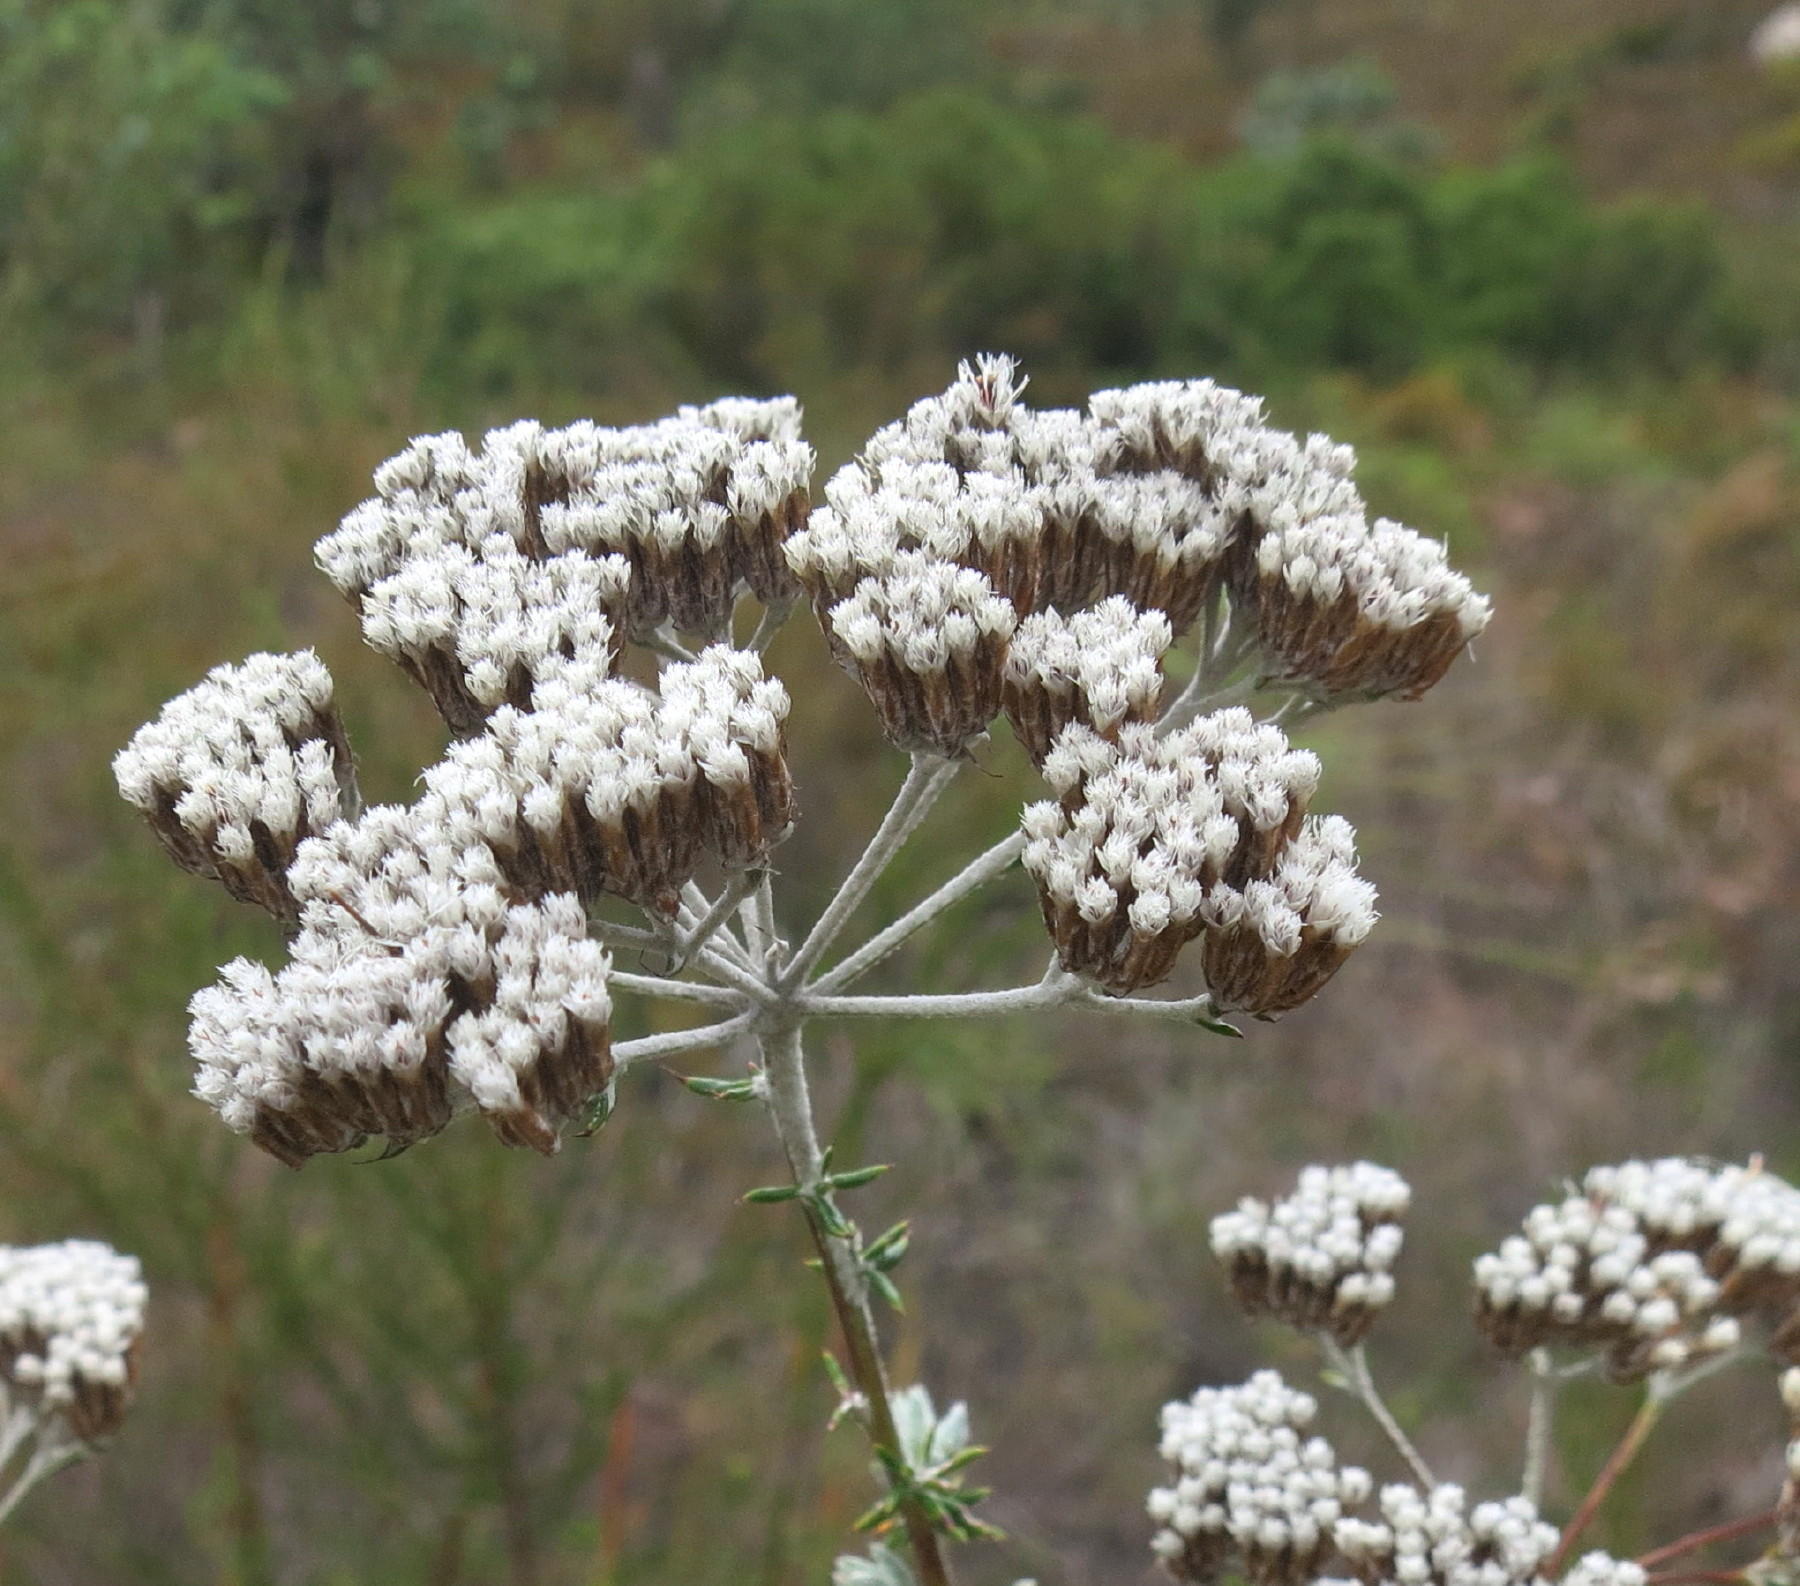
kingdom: Plantae
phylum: Tracheophyta
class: Magnoliopsida
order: Asterales
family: Asteraceae
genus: Metalasia
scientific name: Metalasia densa
